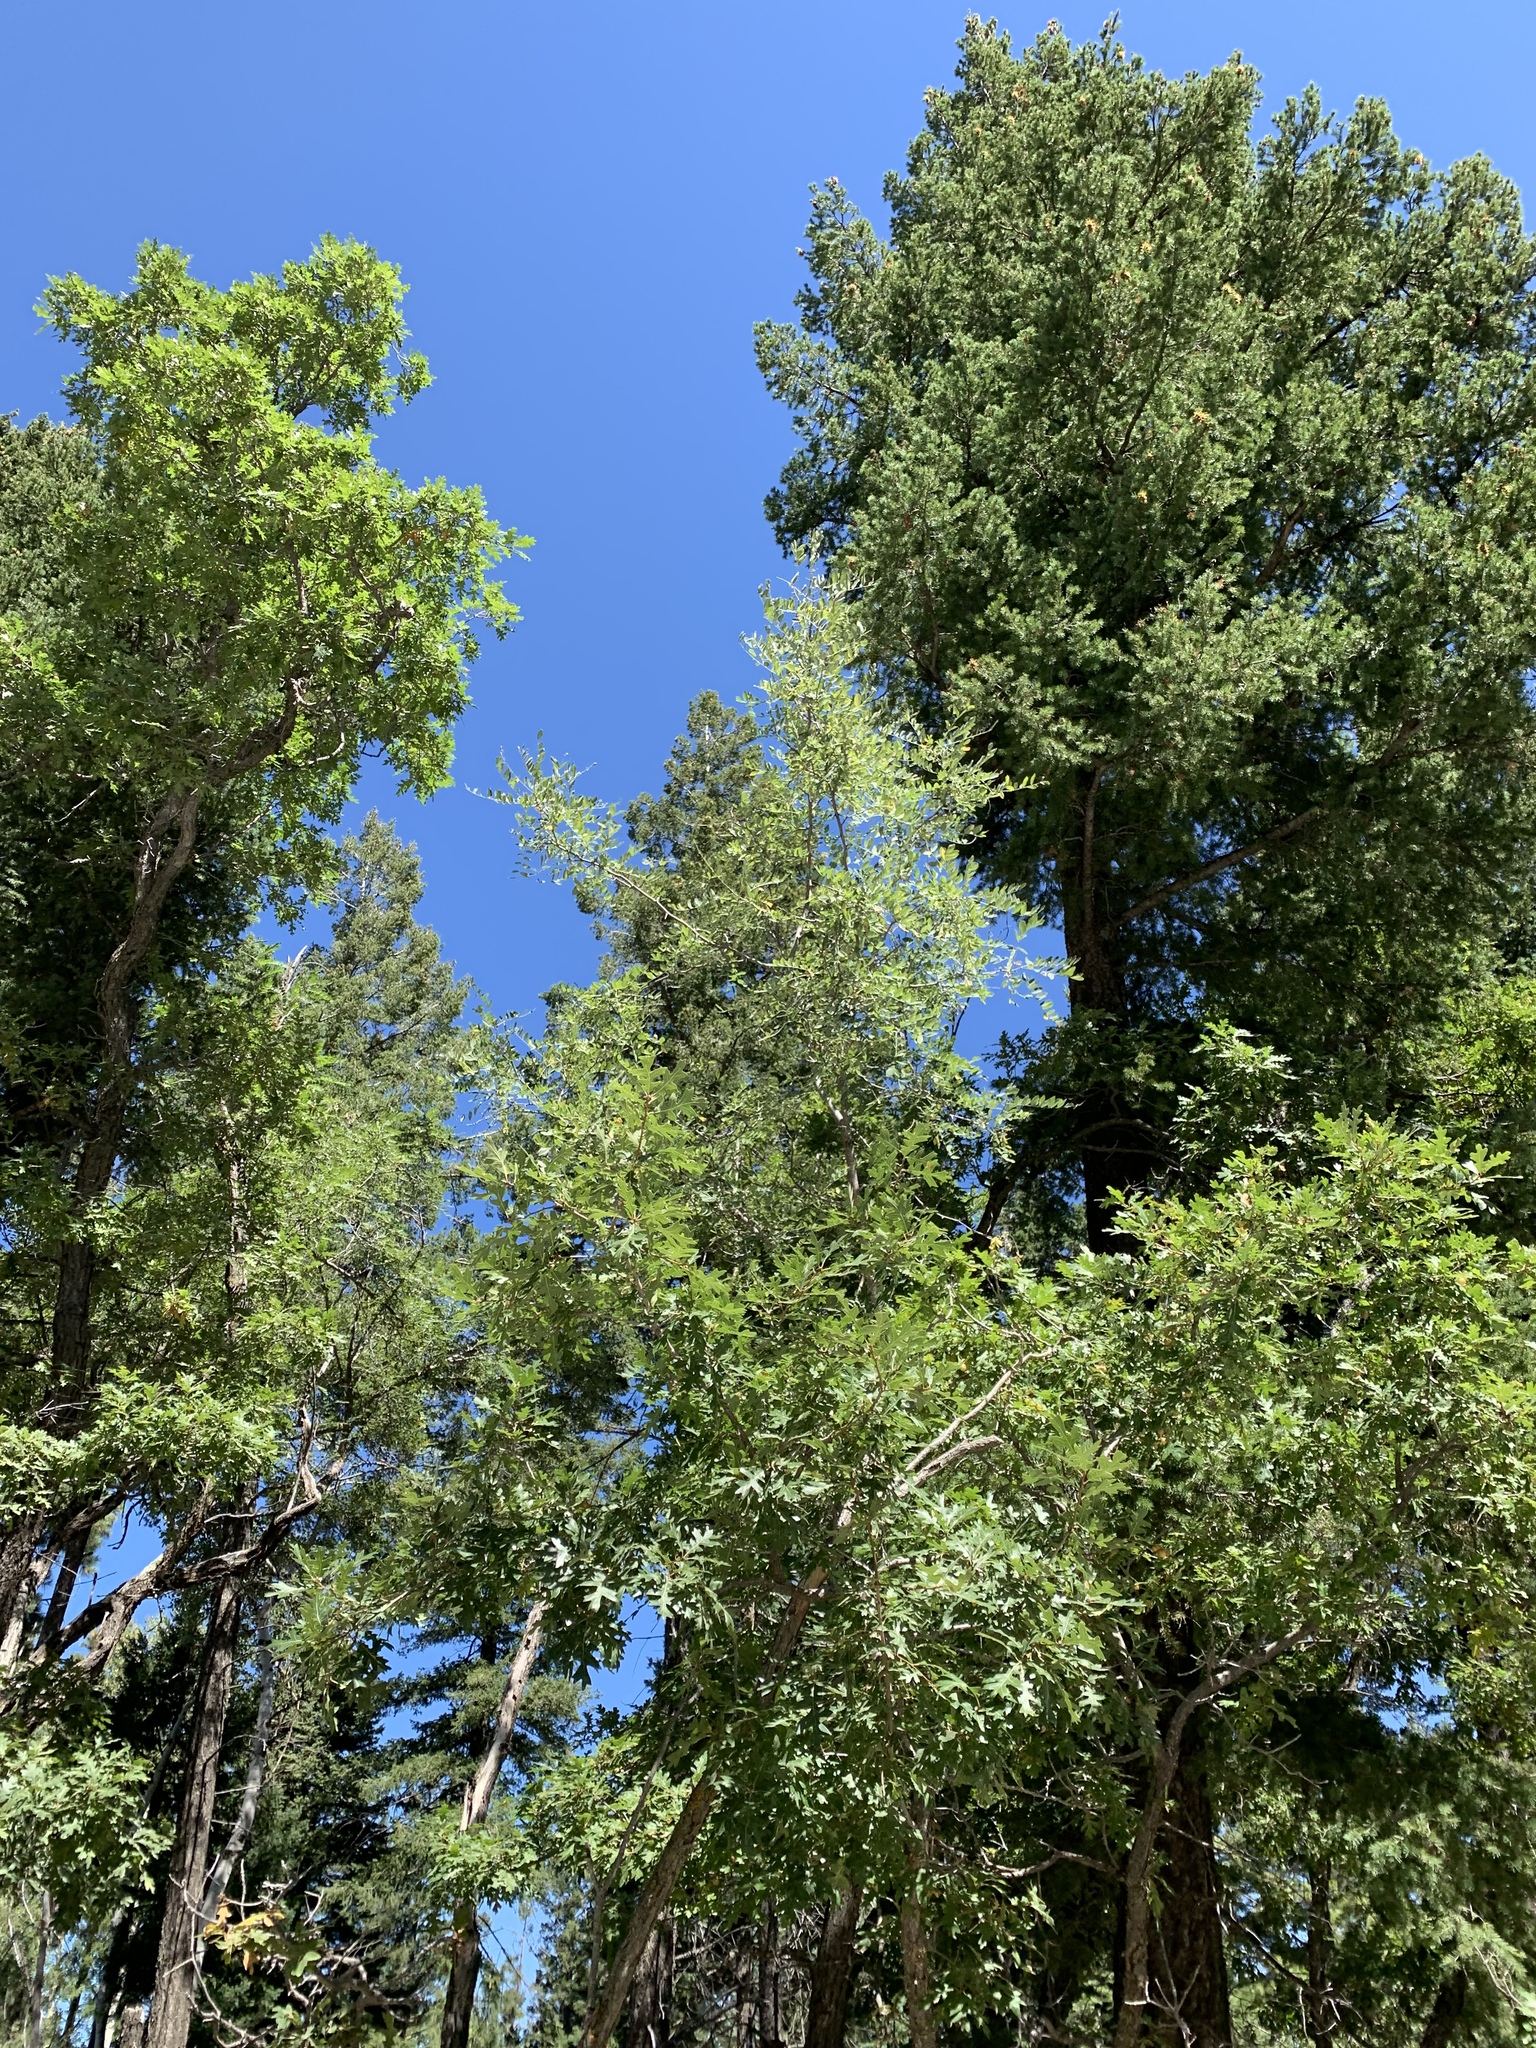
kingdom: Plantae
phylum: Tracheophyta
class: Magnoliopsida
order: Fabales
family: Fabaceae
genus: Robinia
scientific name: Robinia neomexicana
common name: New mexico locust
